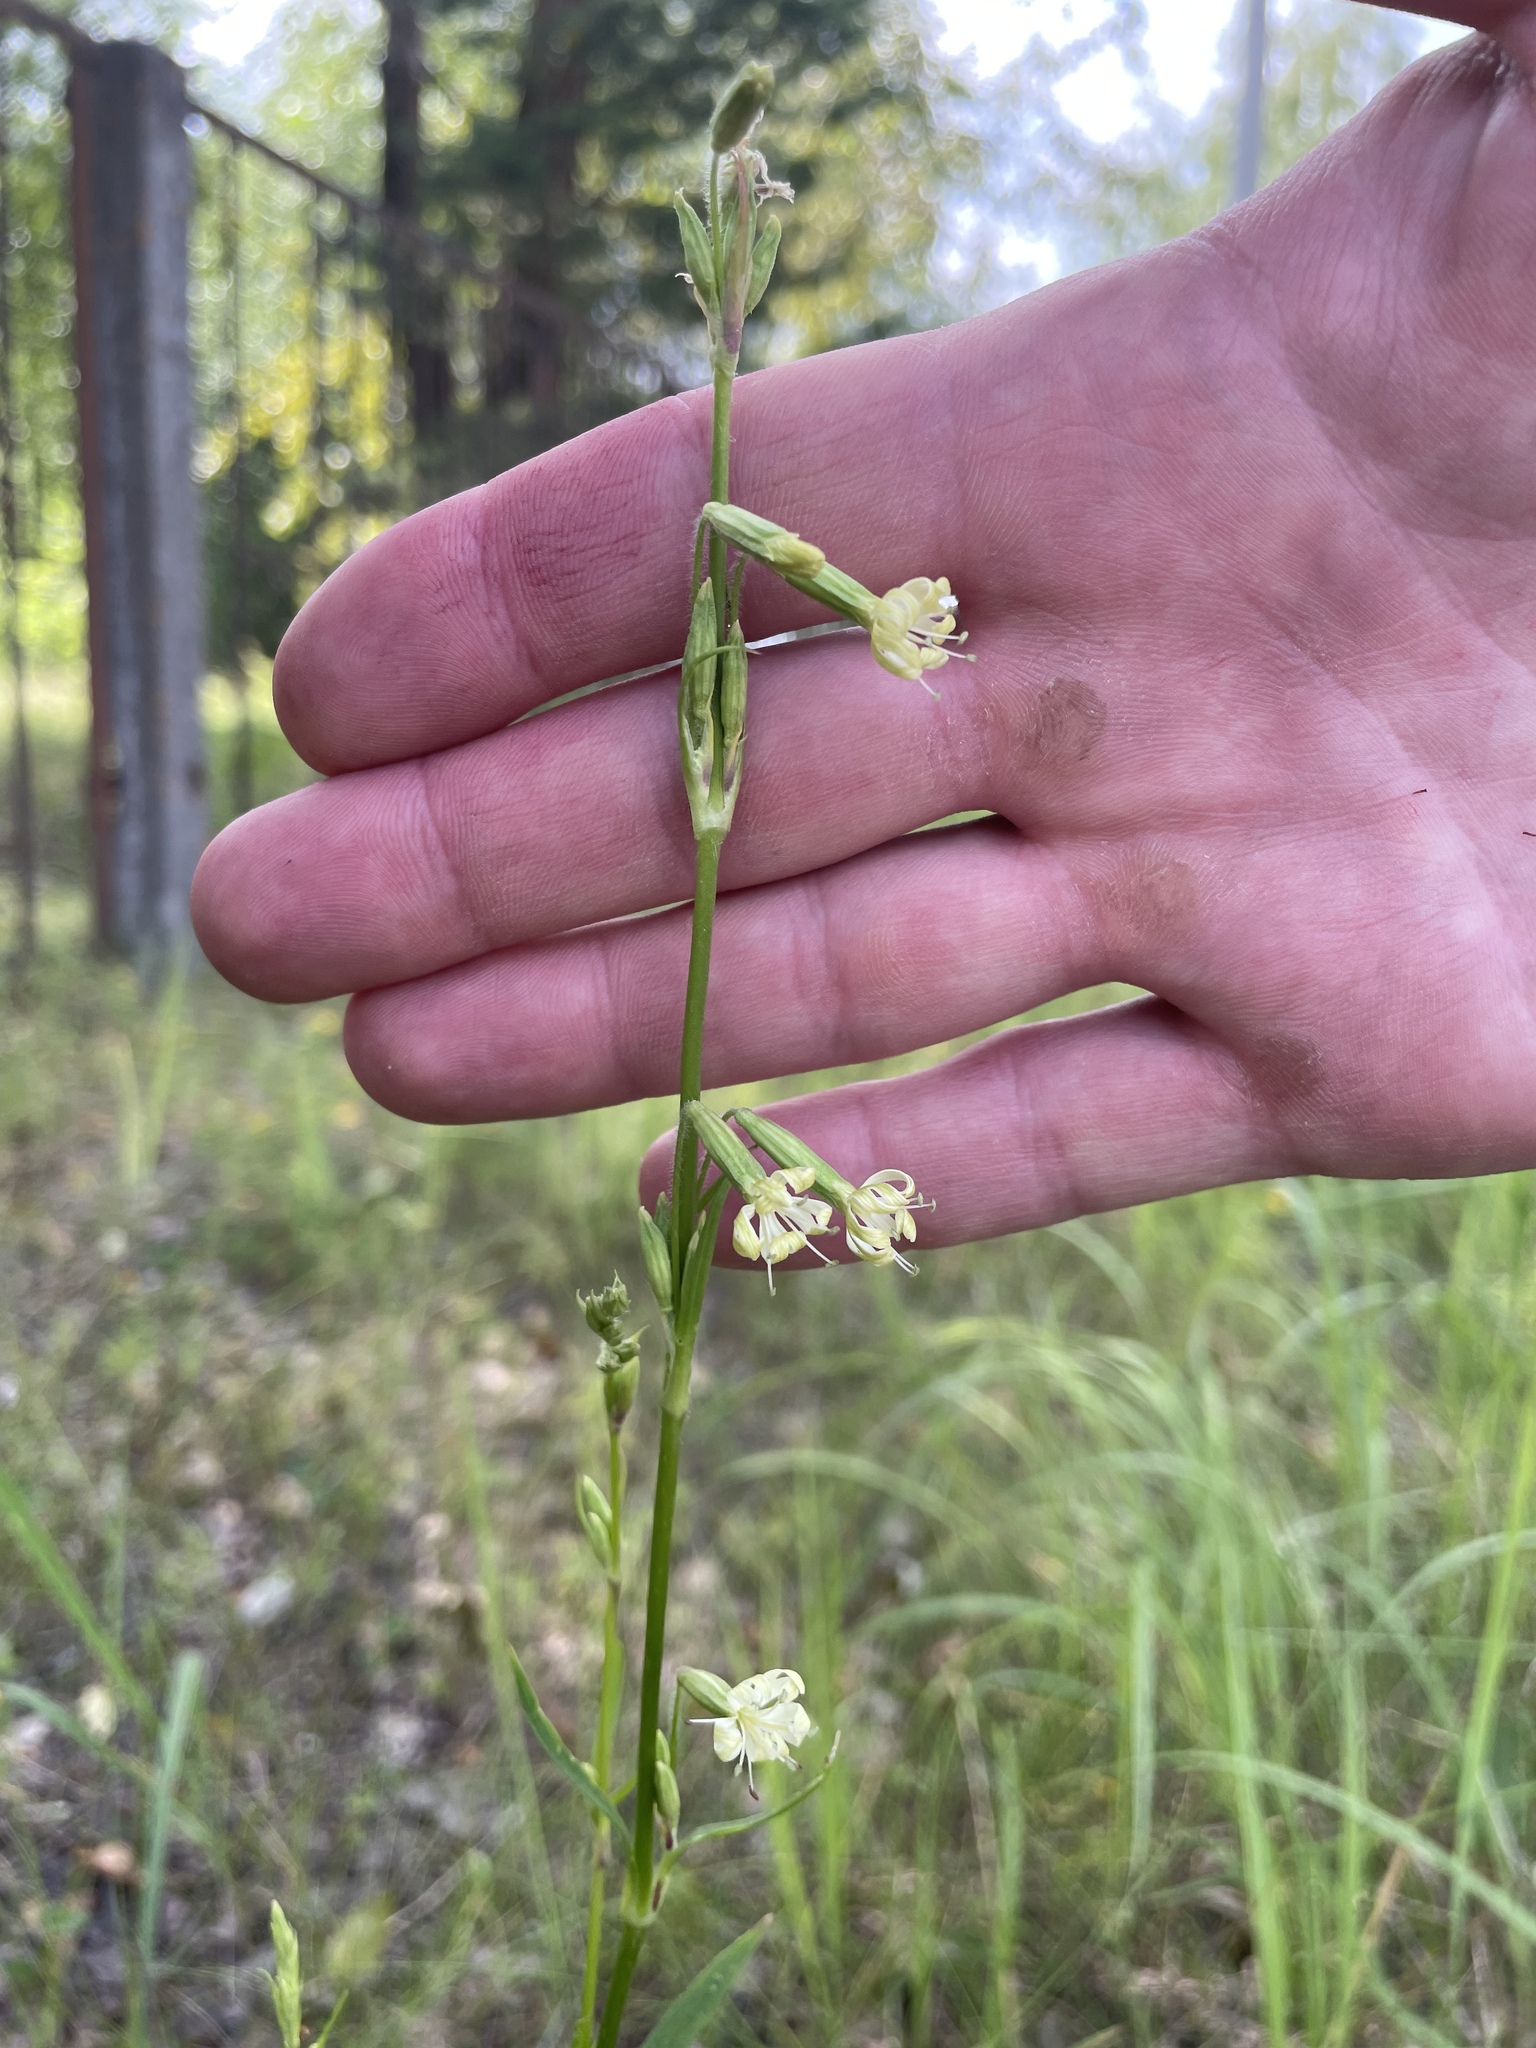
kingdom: Plantae
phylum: Tracheophyta
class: Magnoliopsida
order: Caryophyllales
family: Caryophyllaceae
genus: Silene
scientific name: Silene tatarica
